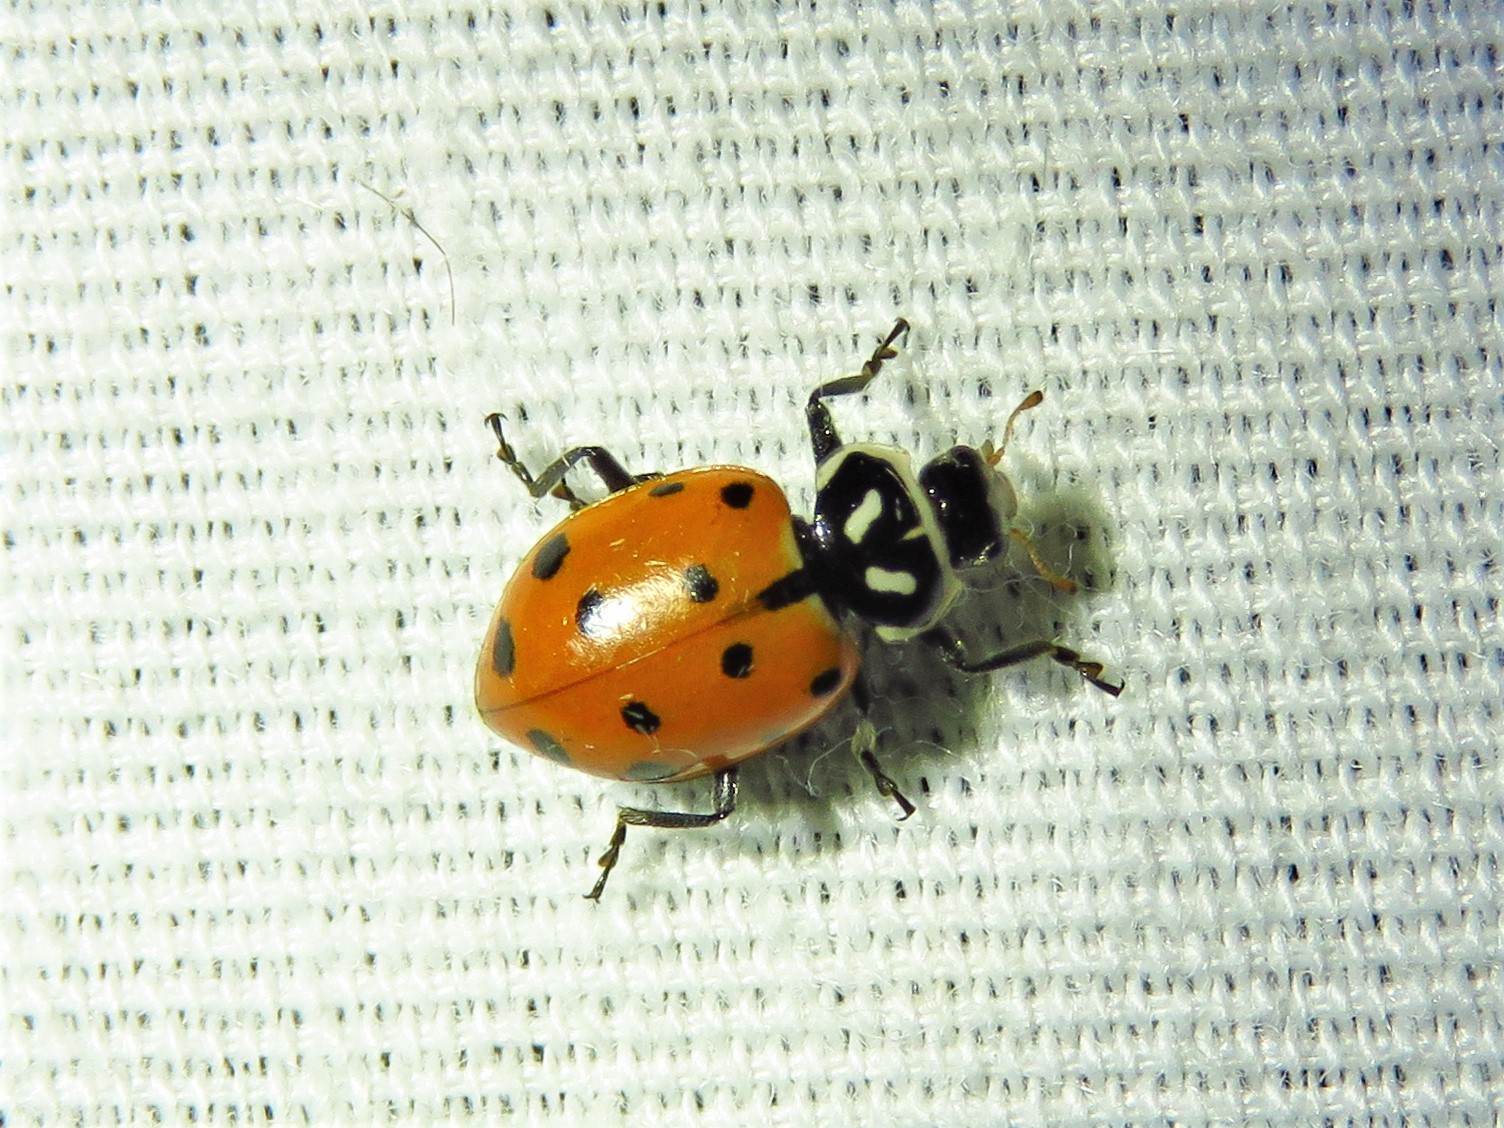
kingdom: Animalia
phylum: Arthropoda
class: Insecta
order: Coleoptera
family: Coccinellidae
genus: Hippodamia
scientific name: Hippodamia convergens
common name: Convergent lady beetle
